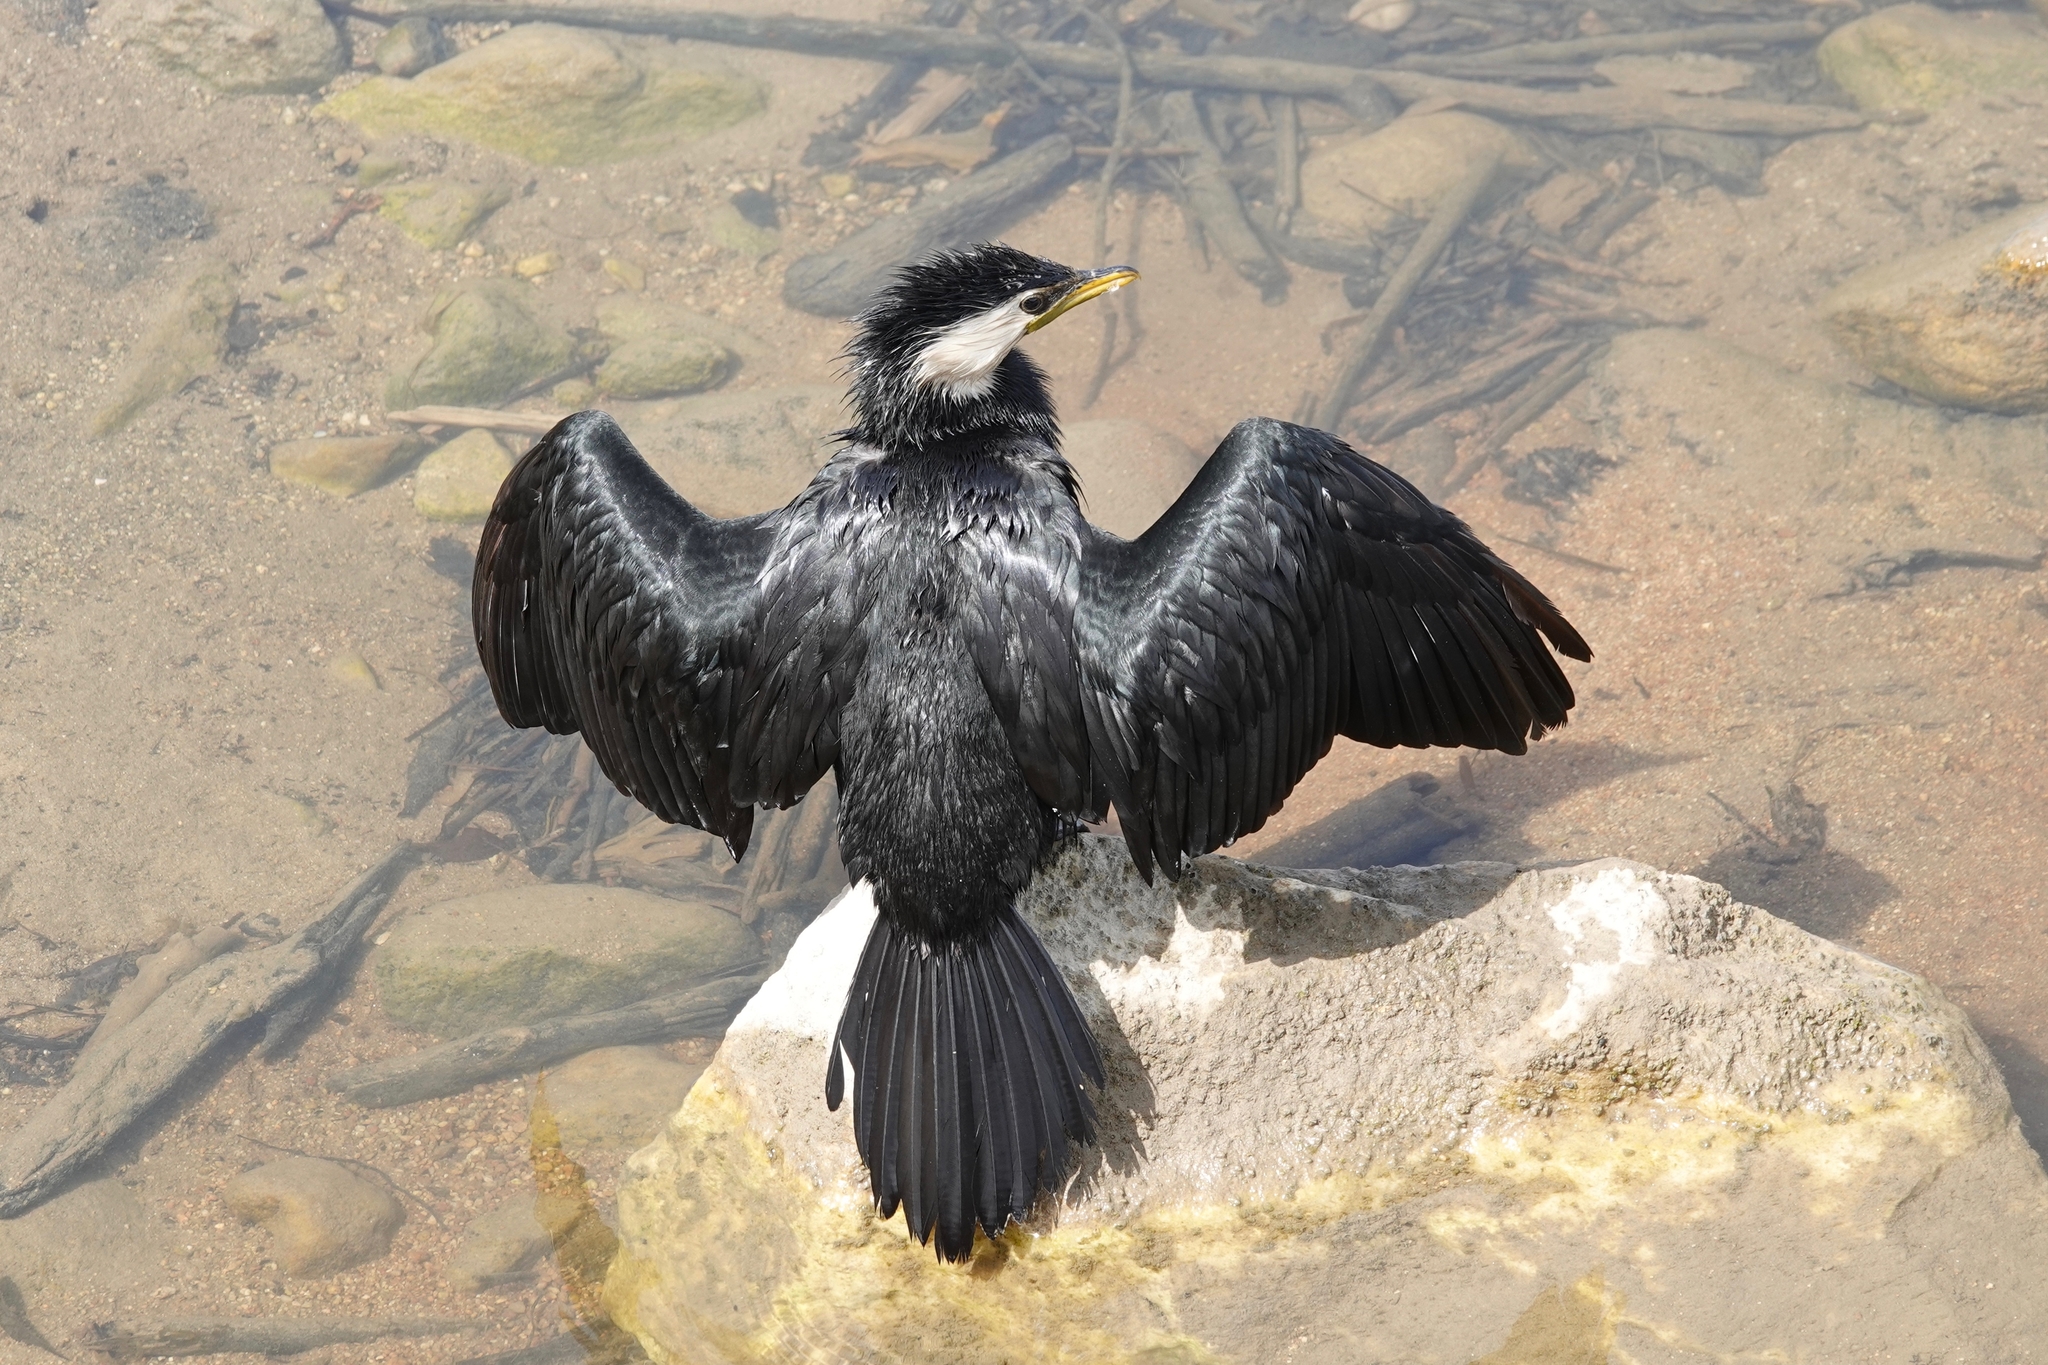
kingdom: Animalia
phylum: Chordata
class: Aves
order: Suliformes
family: Phalacrocoracidae
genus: Microcarbo
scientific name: Microcarbo melanoleucos
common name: Little pied cormorant
